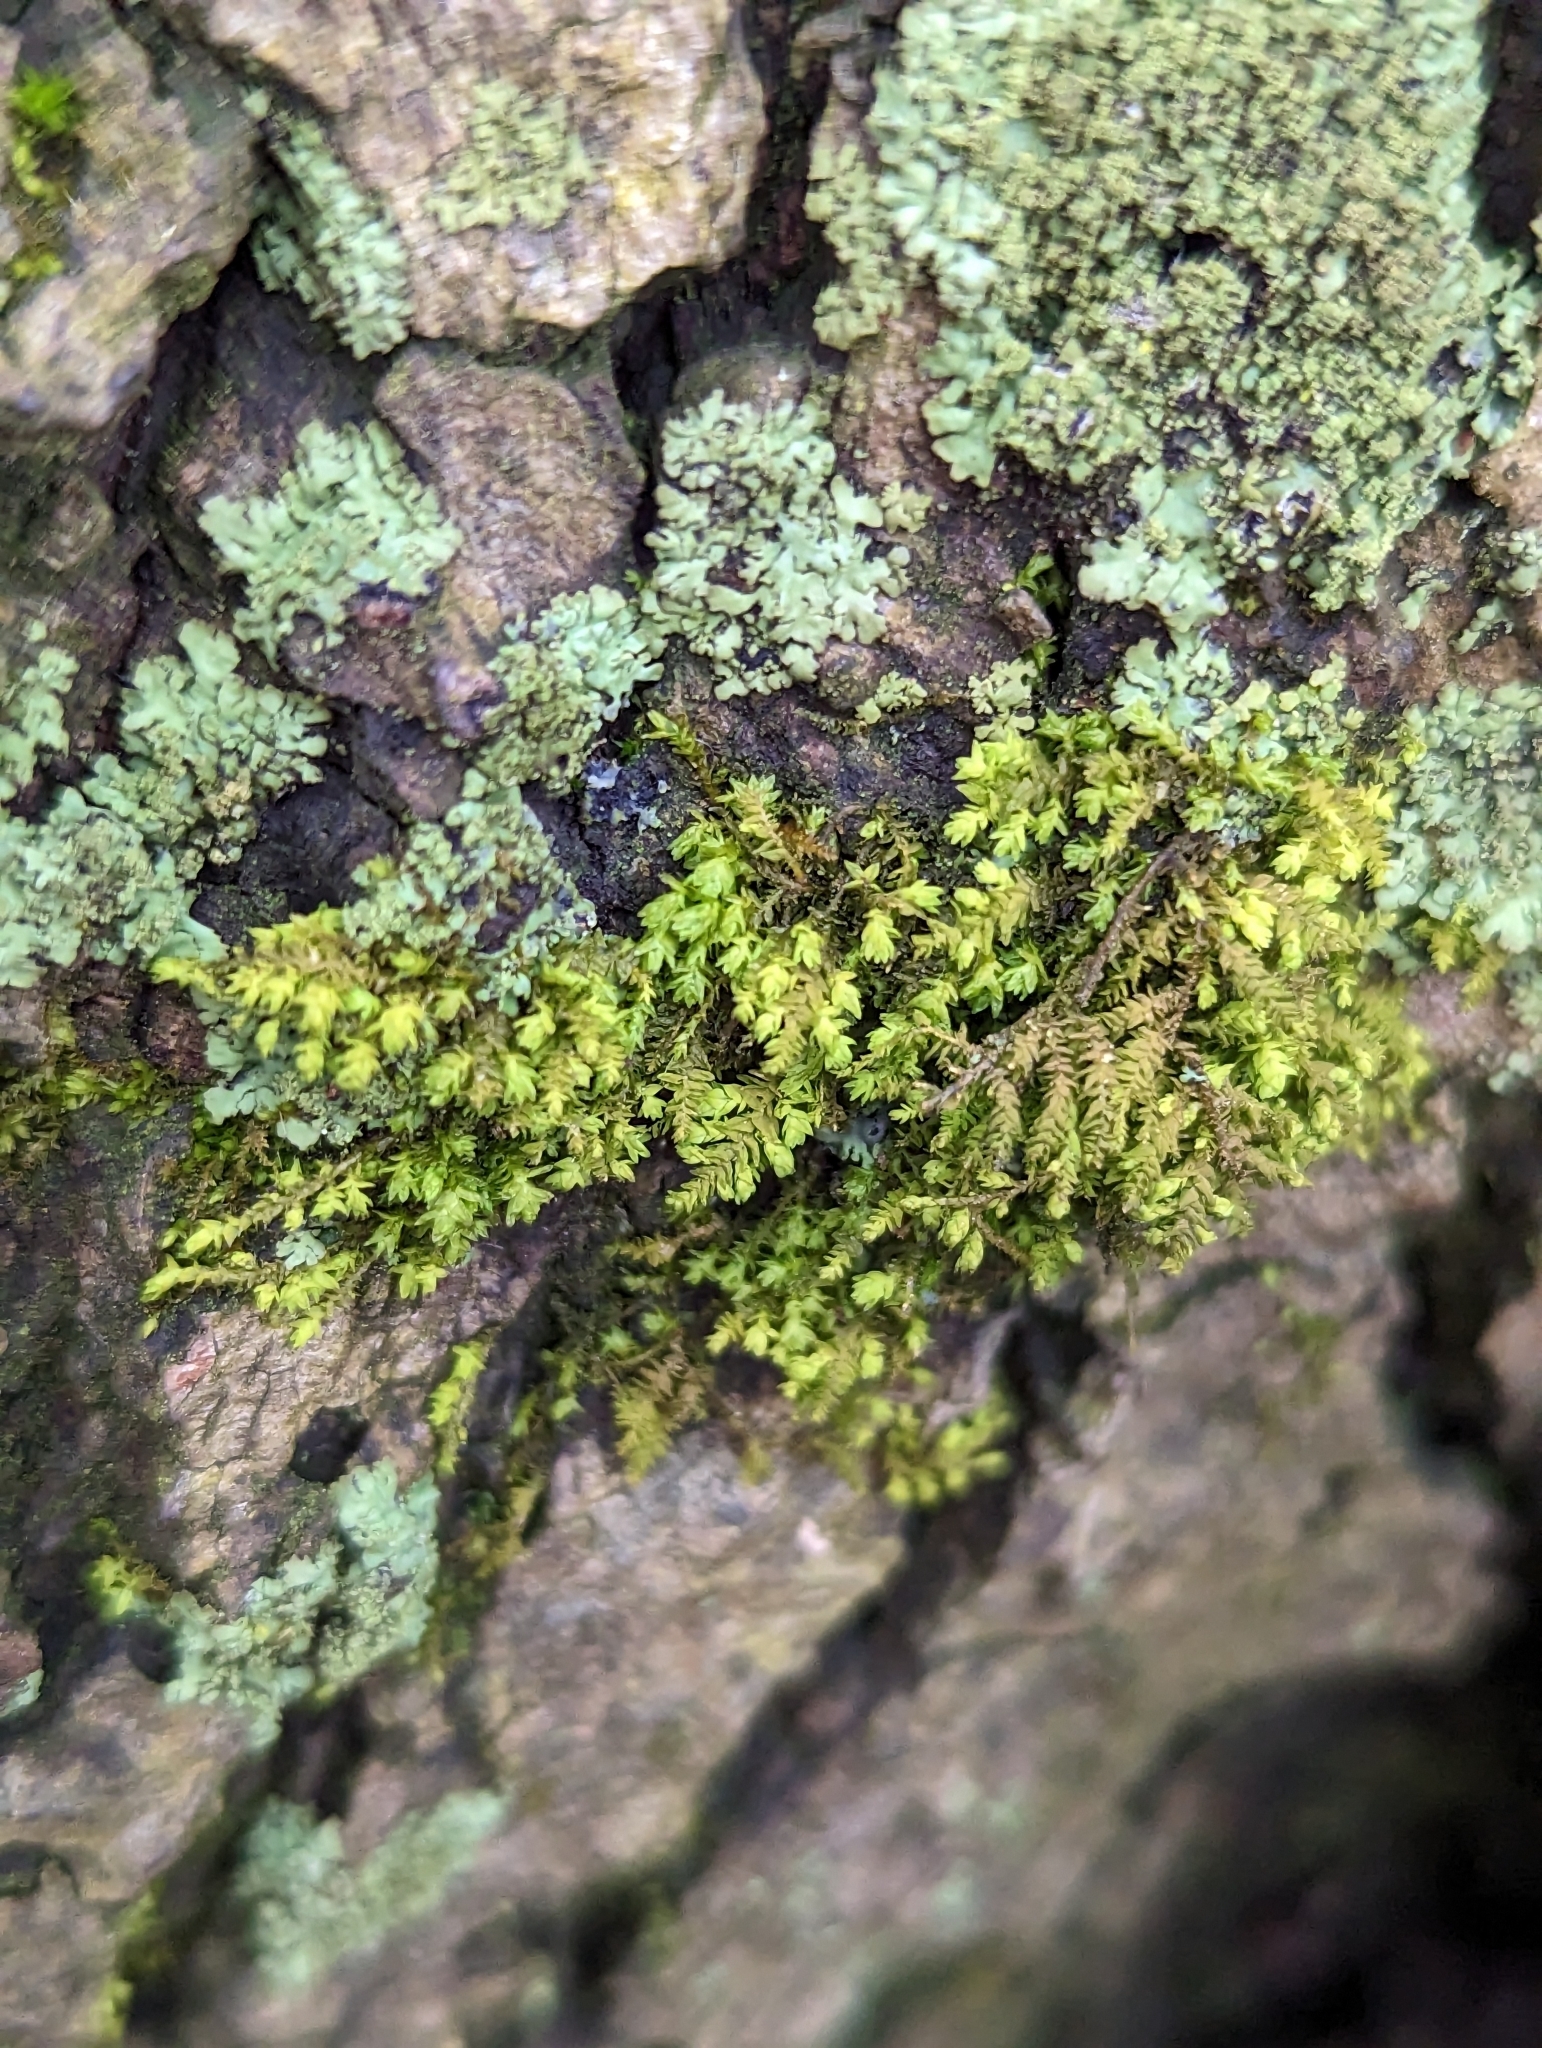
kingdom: Plantae
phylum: Bryophyta
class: Bryopsida
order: Hypnales
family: Neckeraceae
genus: Pseudanomodon
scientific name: Pseudanomodon attenuatus
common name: Tree-skirt moss
